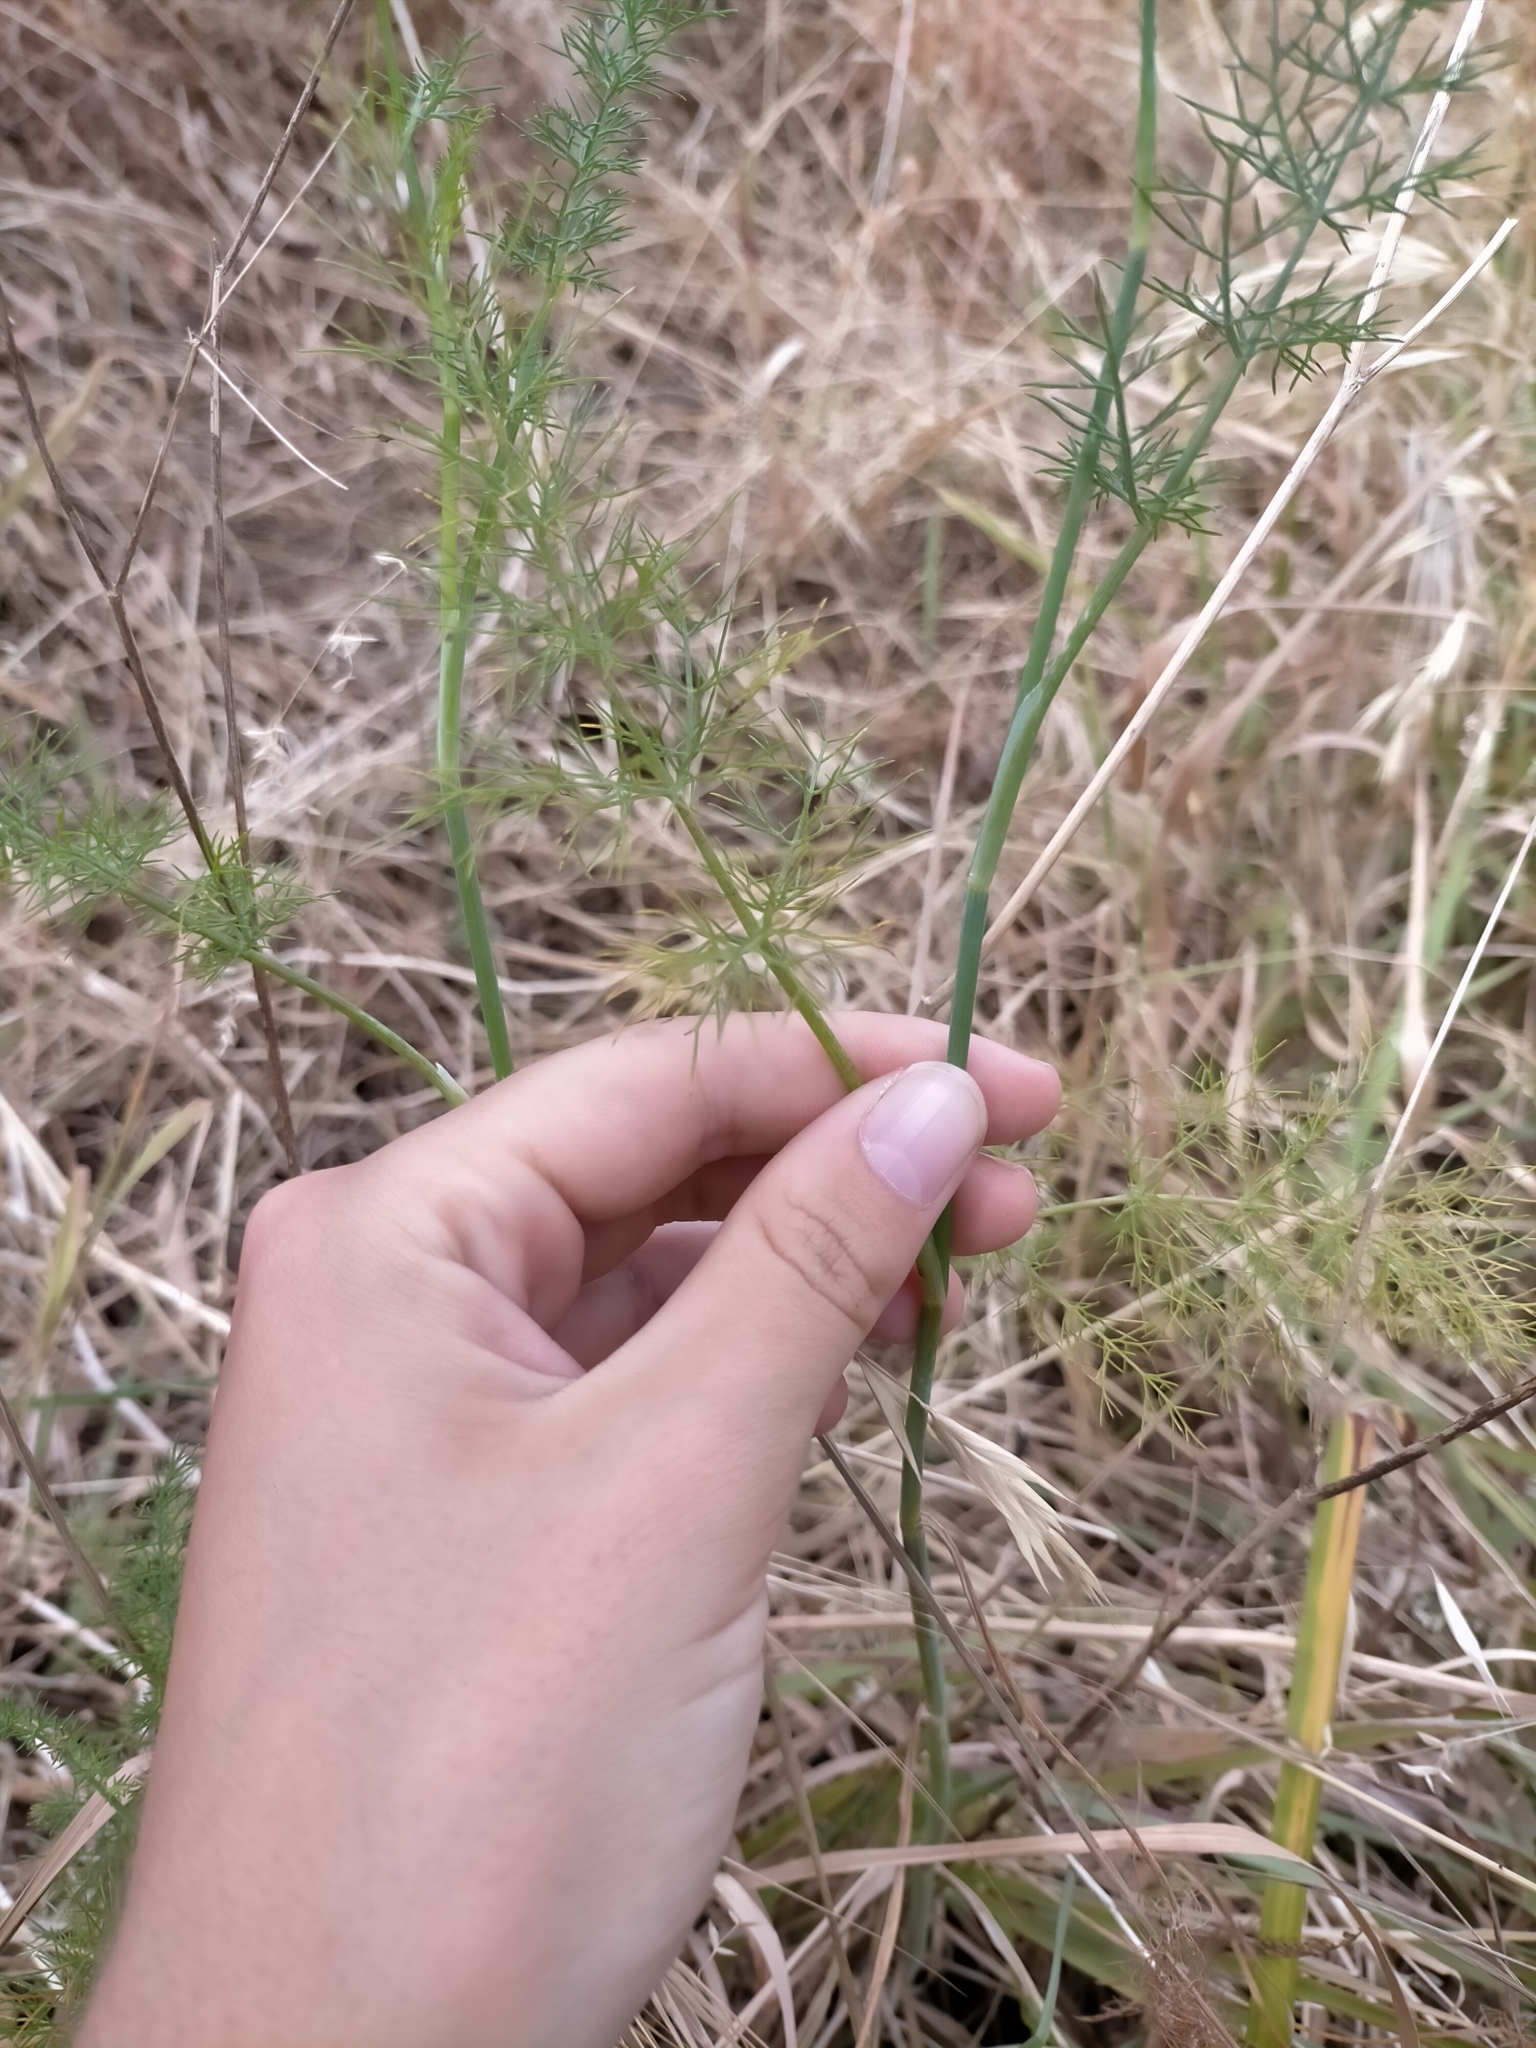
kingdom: Plantae
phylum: Tracheophyta
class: Magnoliopsida
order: Apiales
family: Apiaceae
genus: Foeniculum
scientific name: Foeniculum vulgare
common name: Fennel
